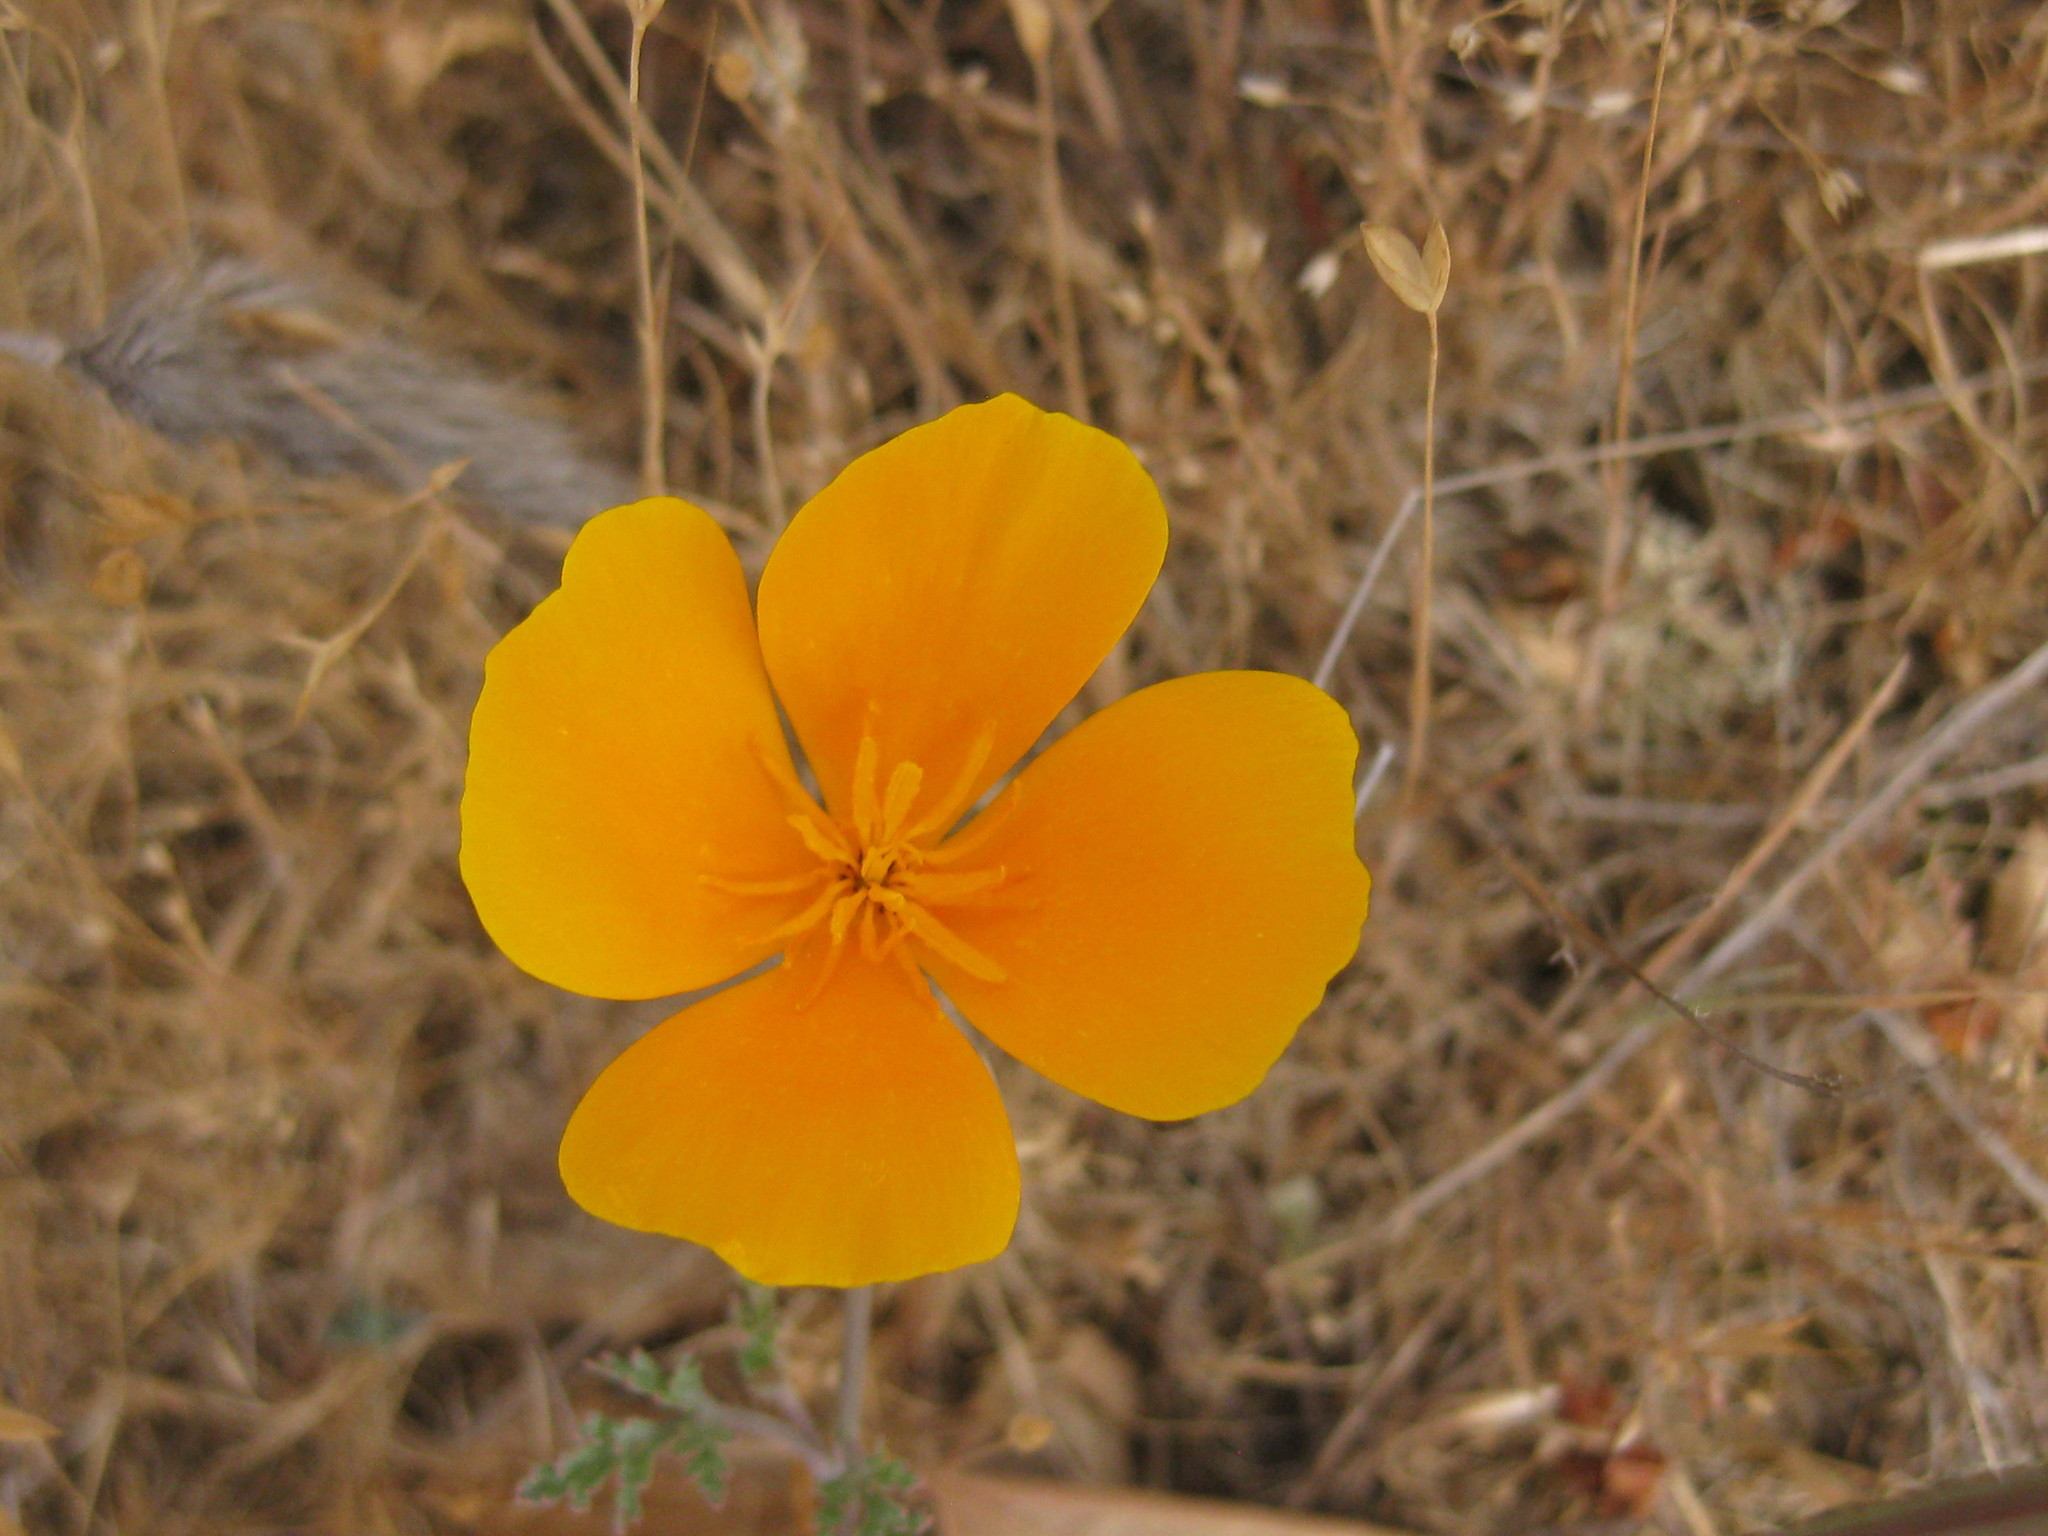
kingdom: Plantae
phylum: Tracheophyta
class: Magnoliopsida
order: Ranunculales
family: Papaveraceae
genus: Eschscholzia
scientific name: Eschscholzia californica
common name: California poppy
